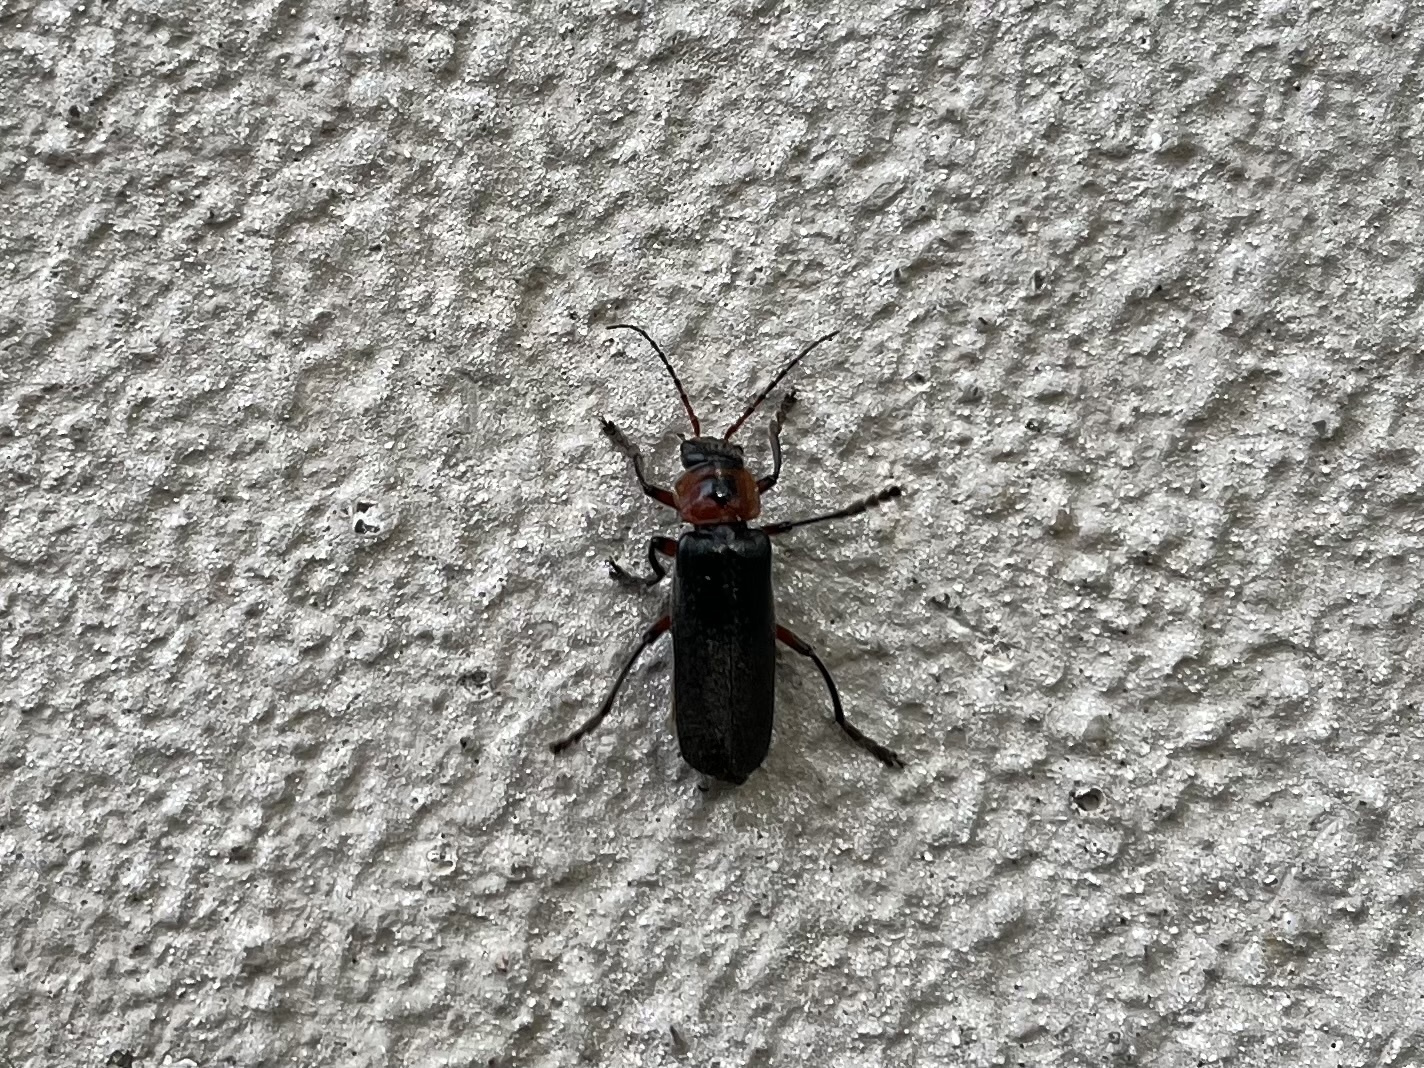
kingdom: Animalia
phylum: Arthropoda
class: Insecta
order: Coleoptera
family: Cantharidae
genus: Cantharis
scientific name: Cantharis rustica
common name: Soldier beetle
